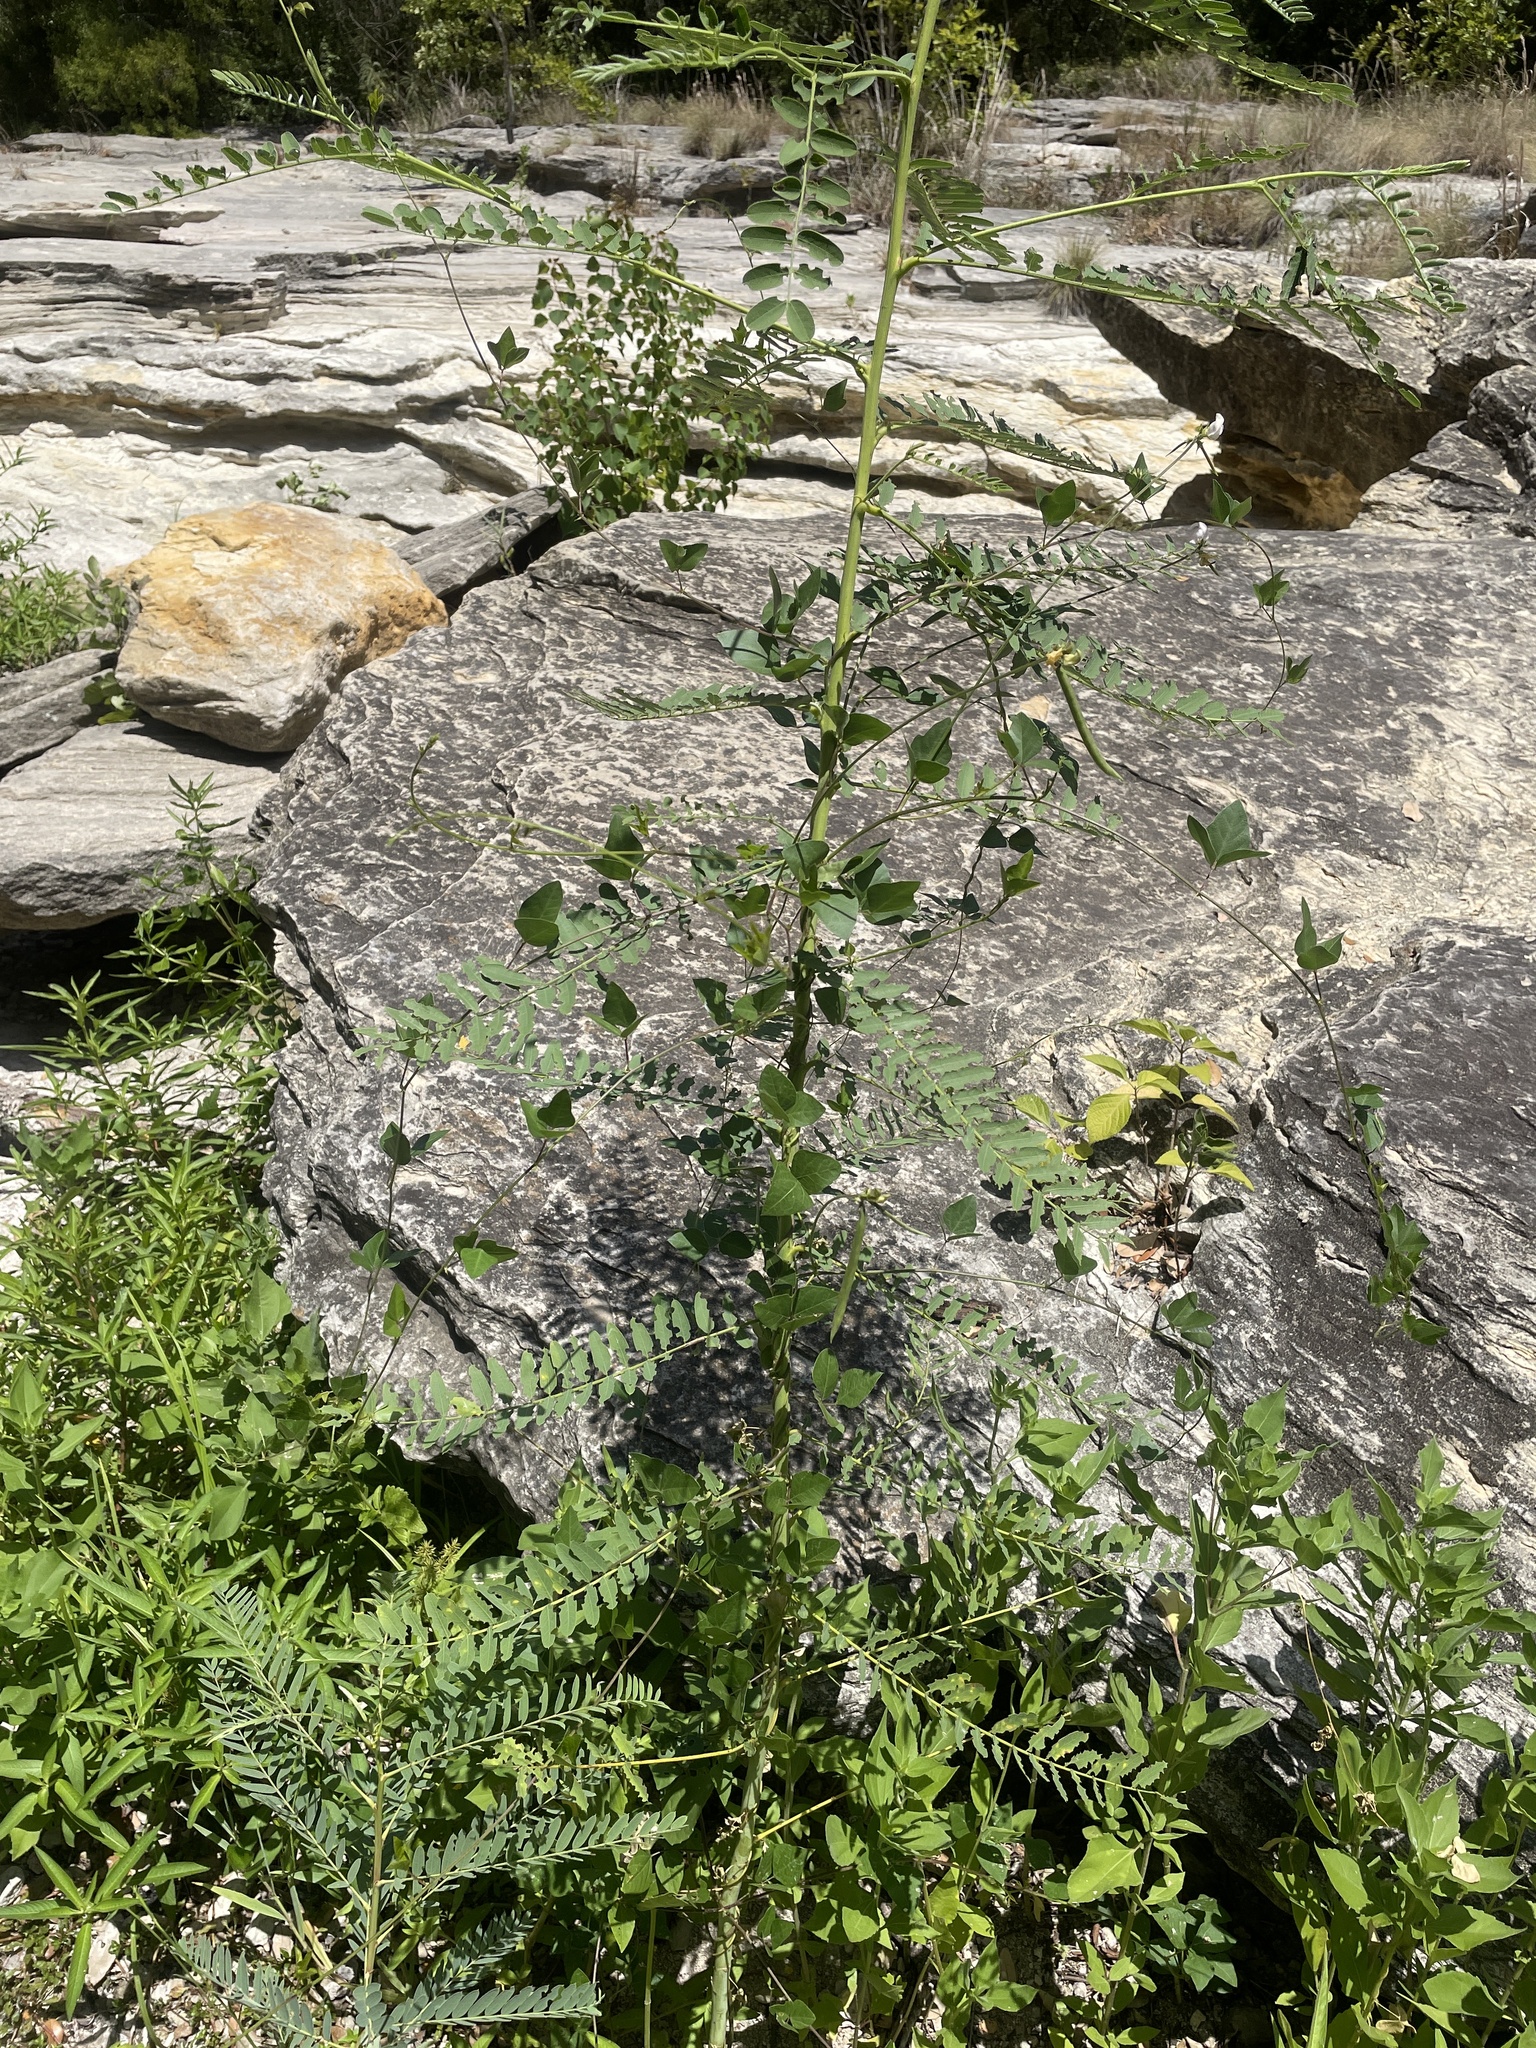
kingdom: Plantae
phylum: Tracheophyta
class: Magnoliopsida
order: Fabales
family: Fabaceae
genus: Strophostyles
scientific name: Strophostyles helvola
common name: Trailing wild bean
